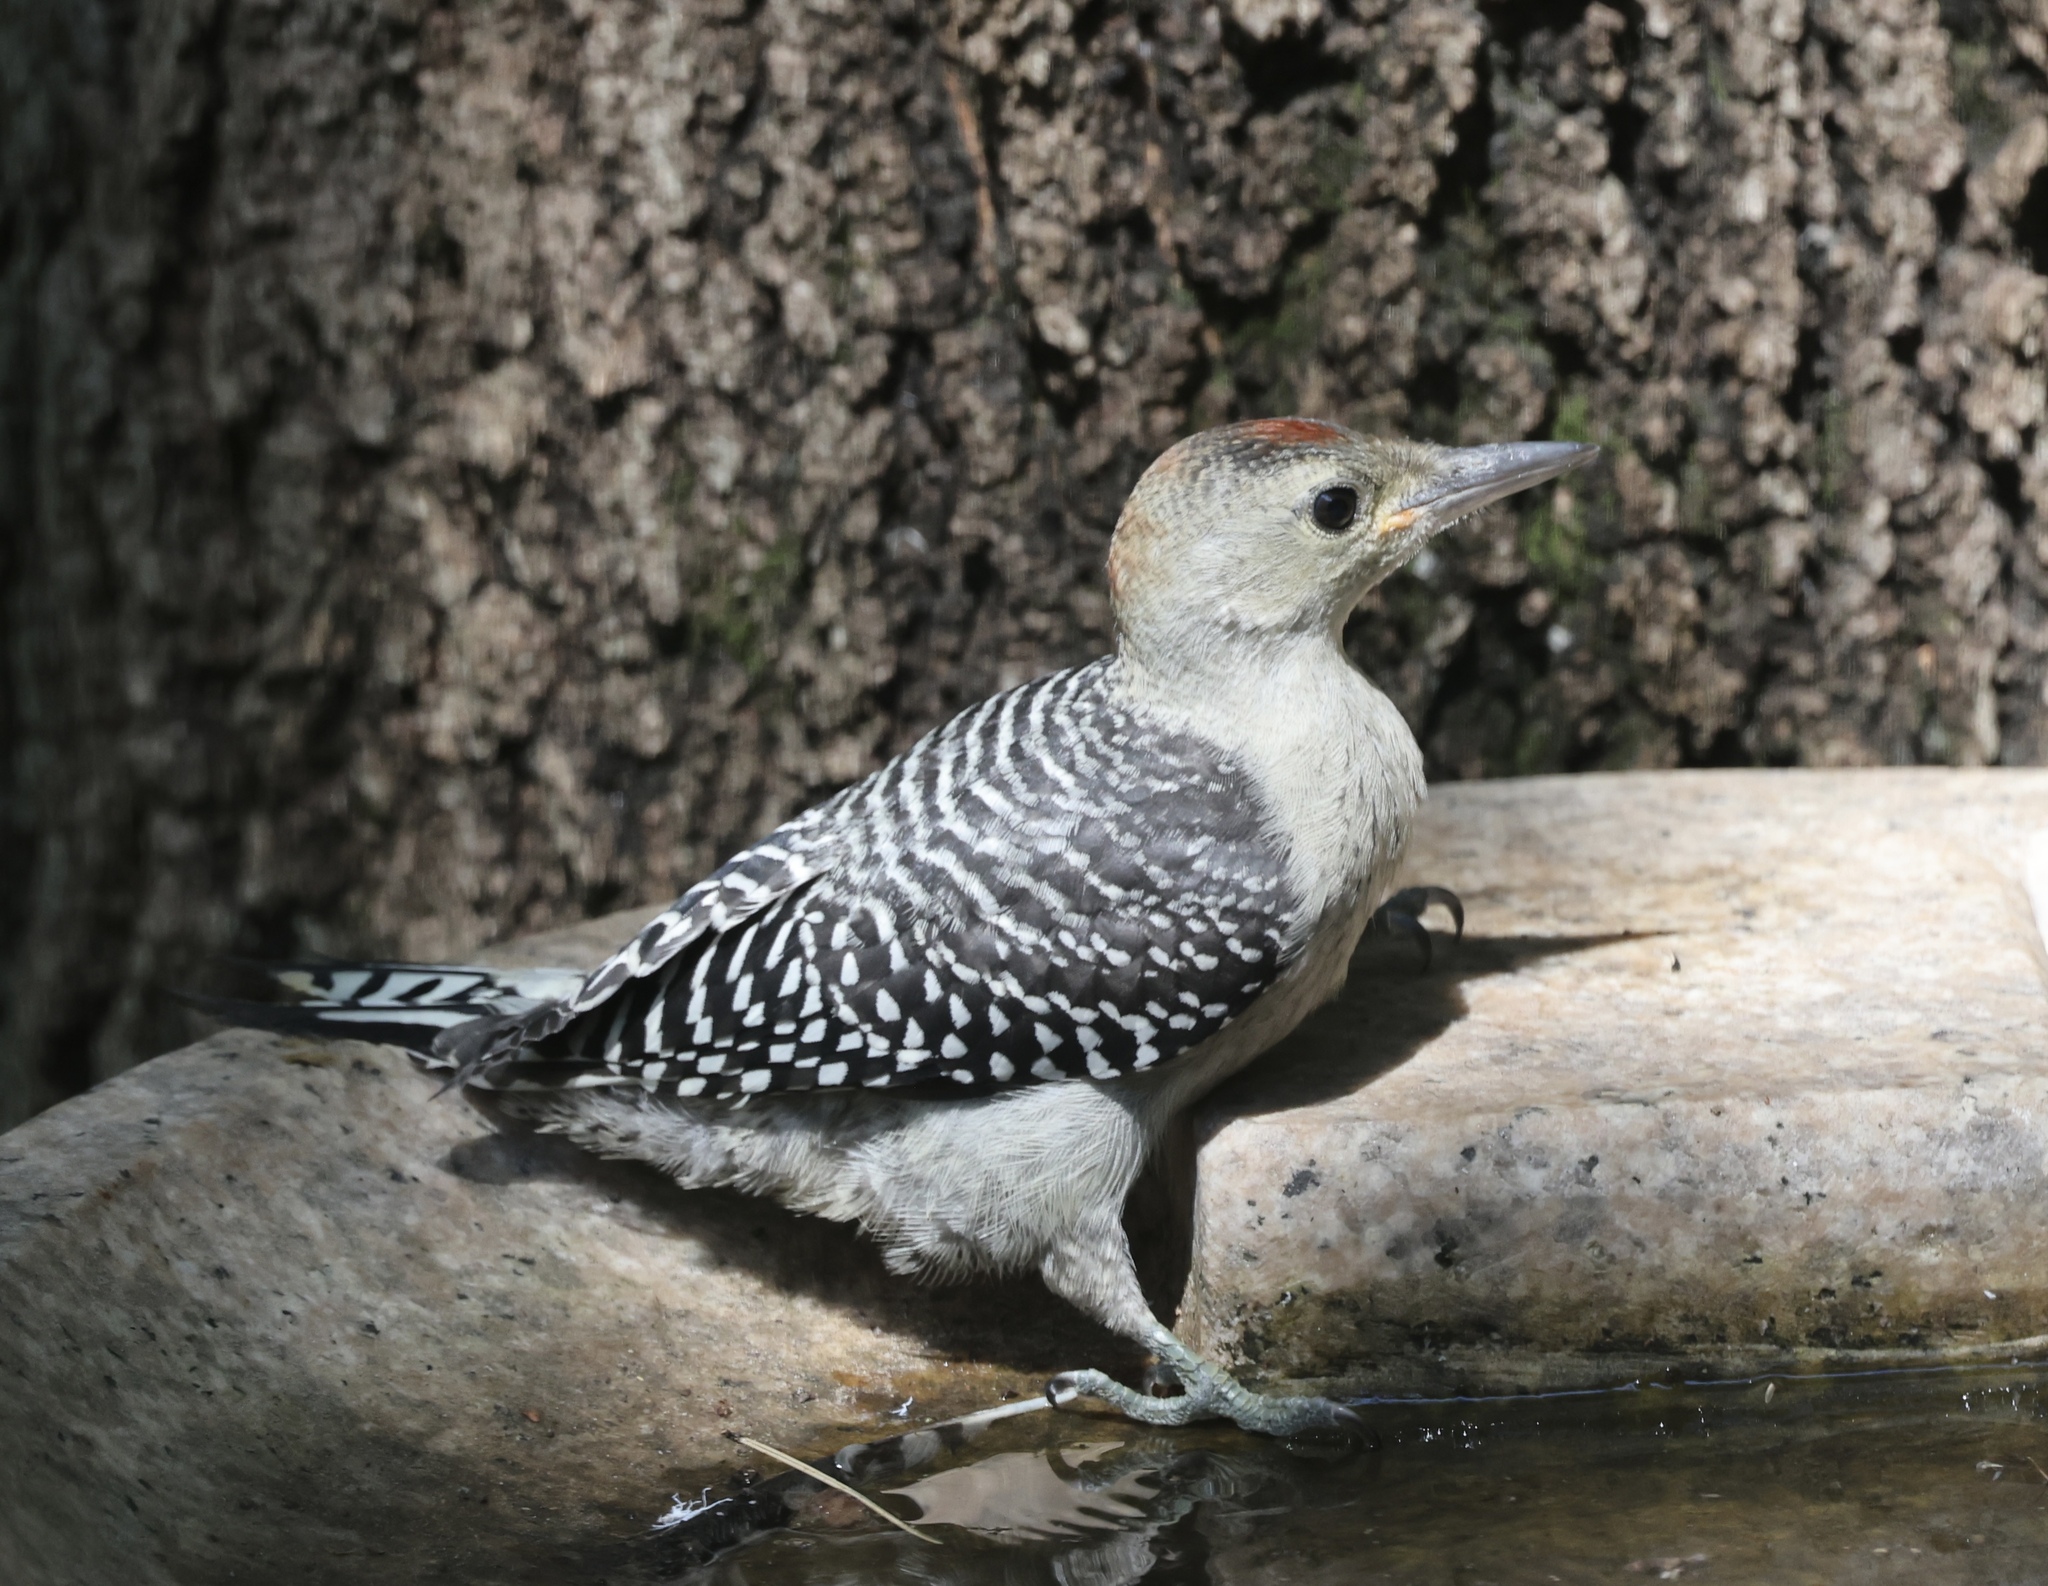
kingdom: Animalia
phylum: Chordata
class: Aves
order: Piciformes
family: Picidae
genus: Melanerpes
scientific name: Melanerpes carolinus
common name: Red-bellied woodpecker
